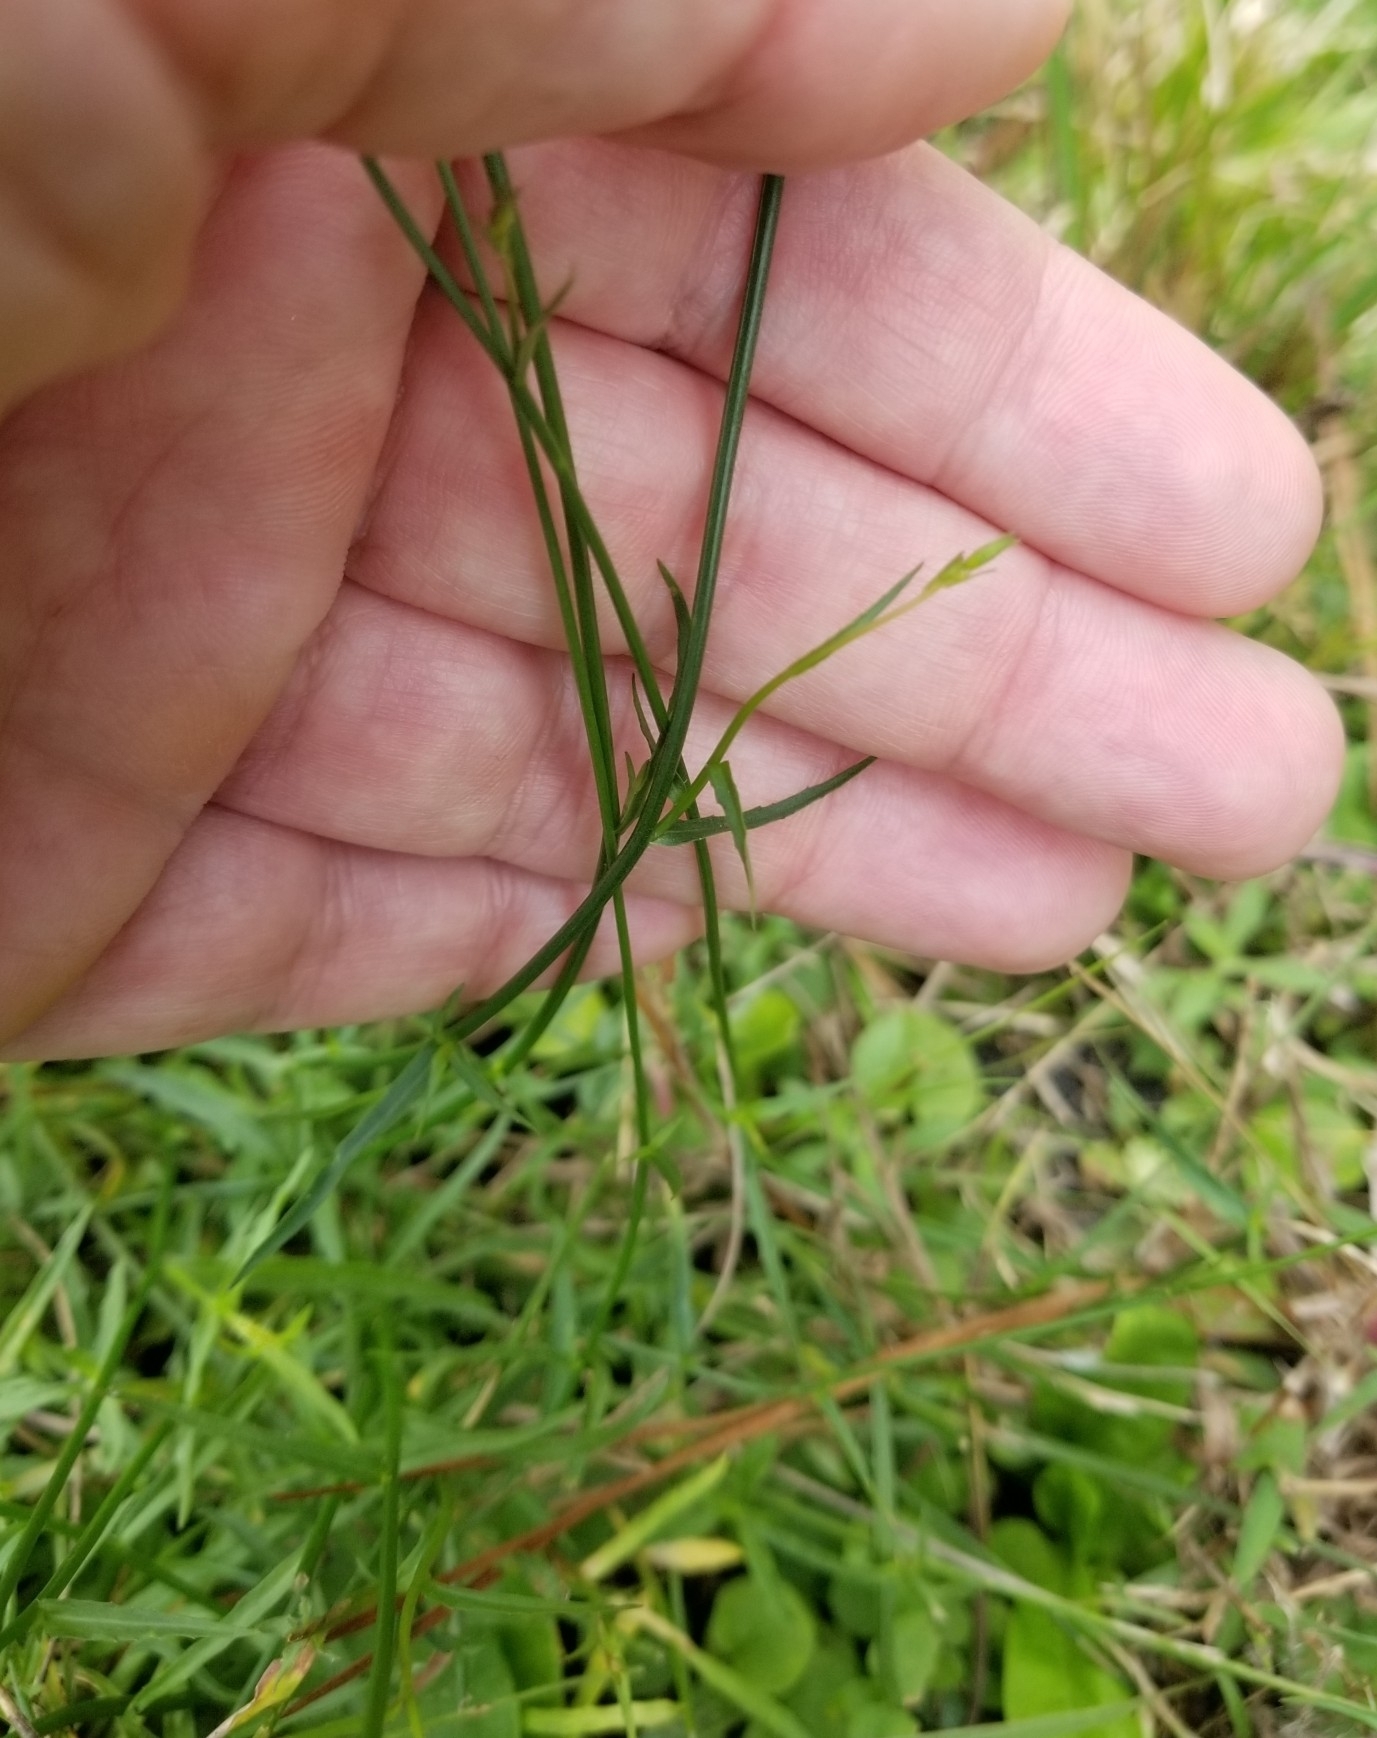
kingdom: Plantae
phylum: Tracheophyta
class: Magnoliopsida
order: Asterales
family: Campanulaceae
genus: Wahlenbergia
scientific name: Wahlenbergia marginata
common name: Southern rockbell
